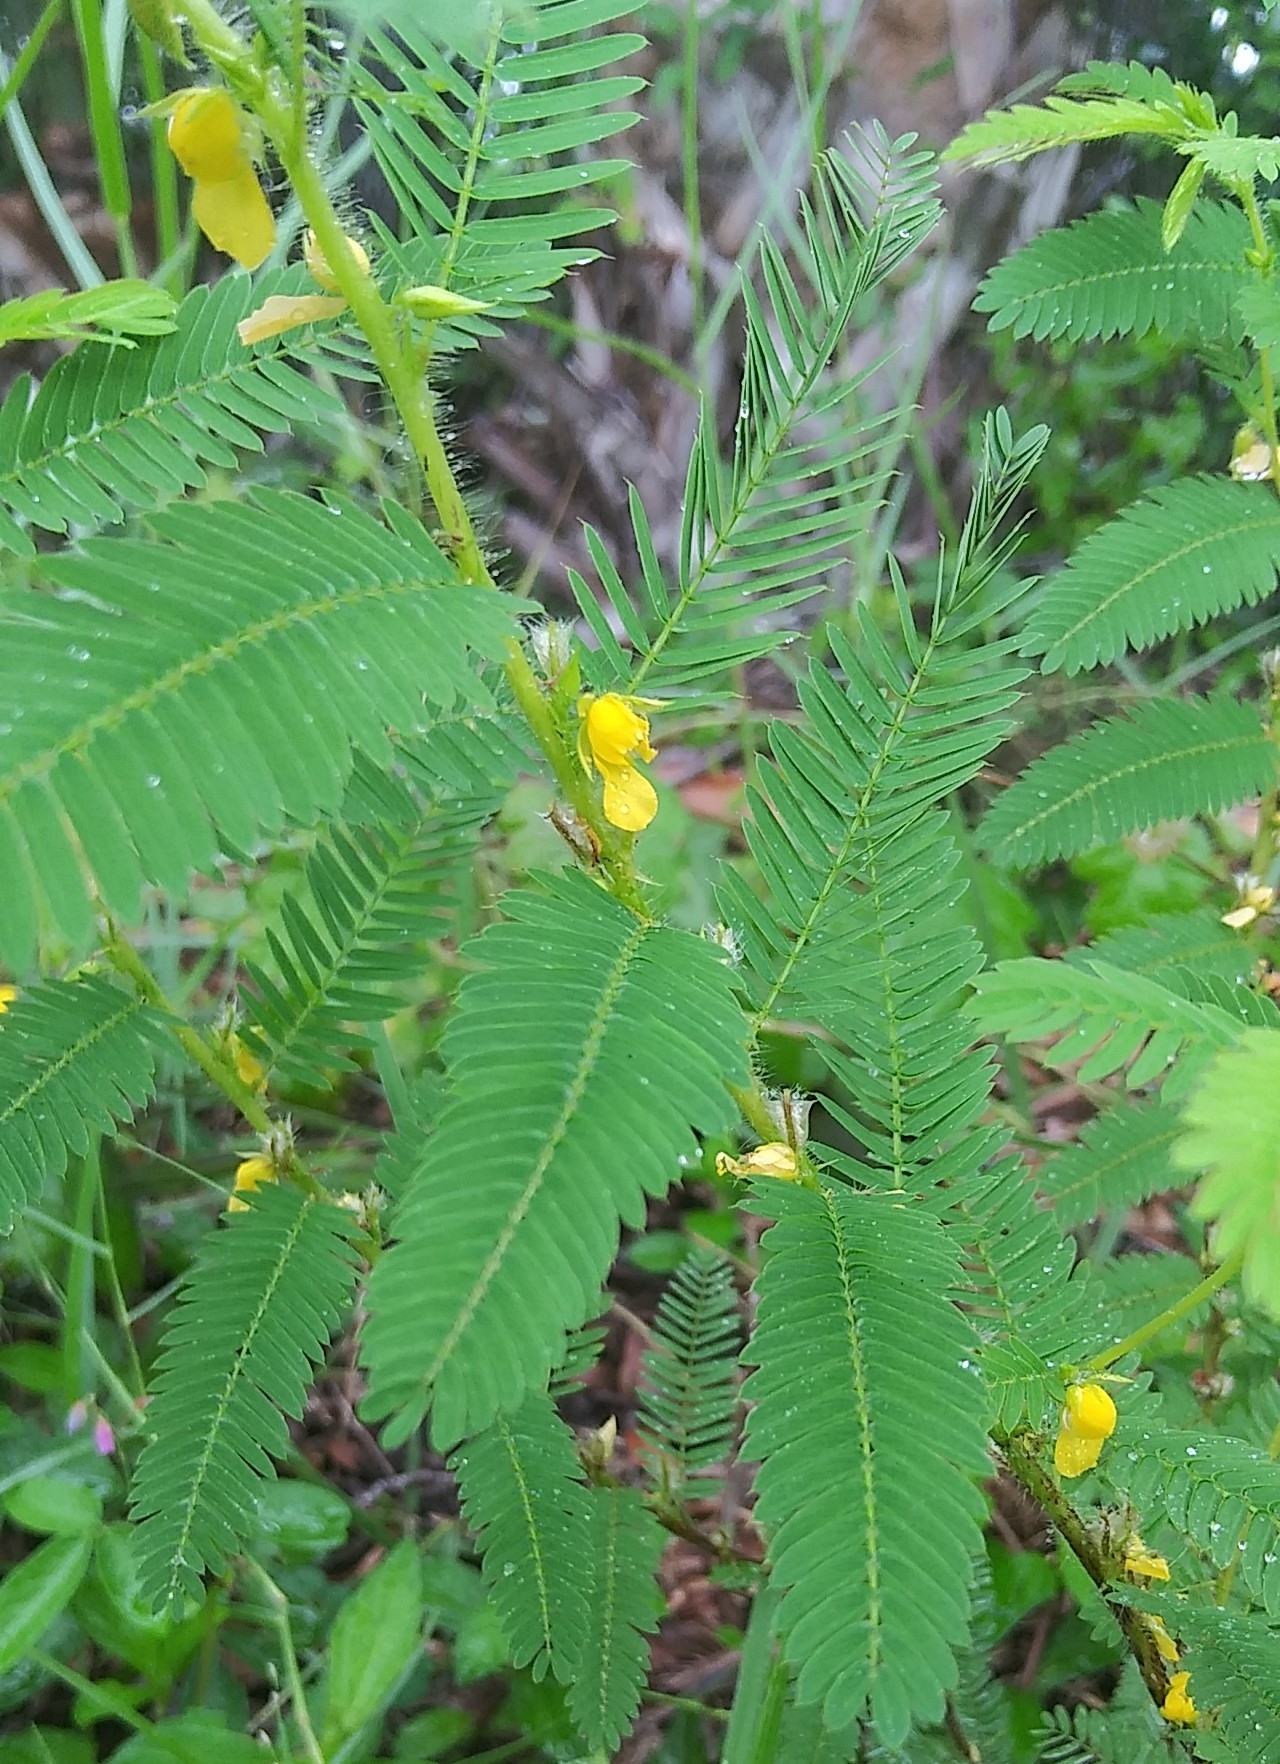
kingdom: Plantae
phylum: Tracheophyta
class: Magnoliopsida
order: Fabales
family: Fabaceae
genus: Chamaecrista
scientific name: Chamaecrista nictitans
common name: Sensitive cassia
